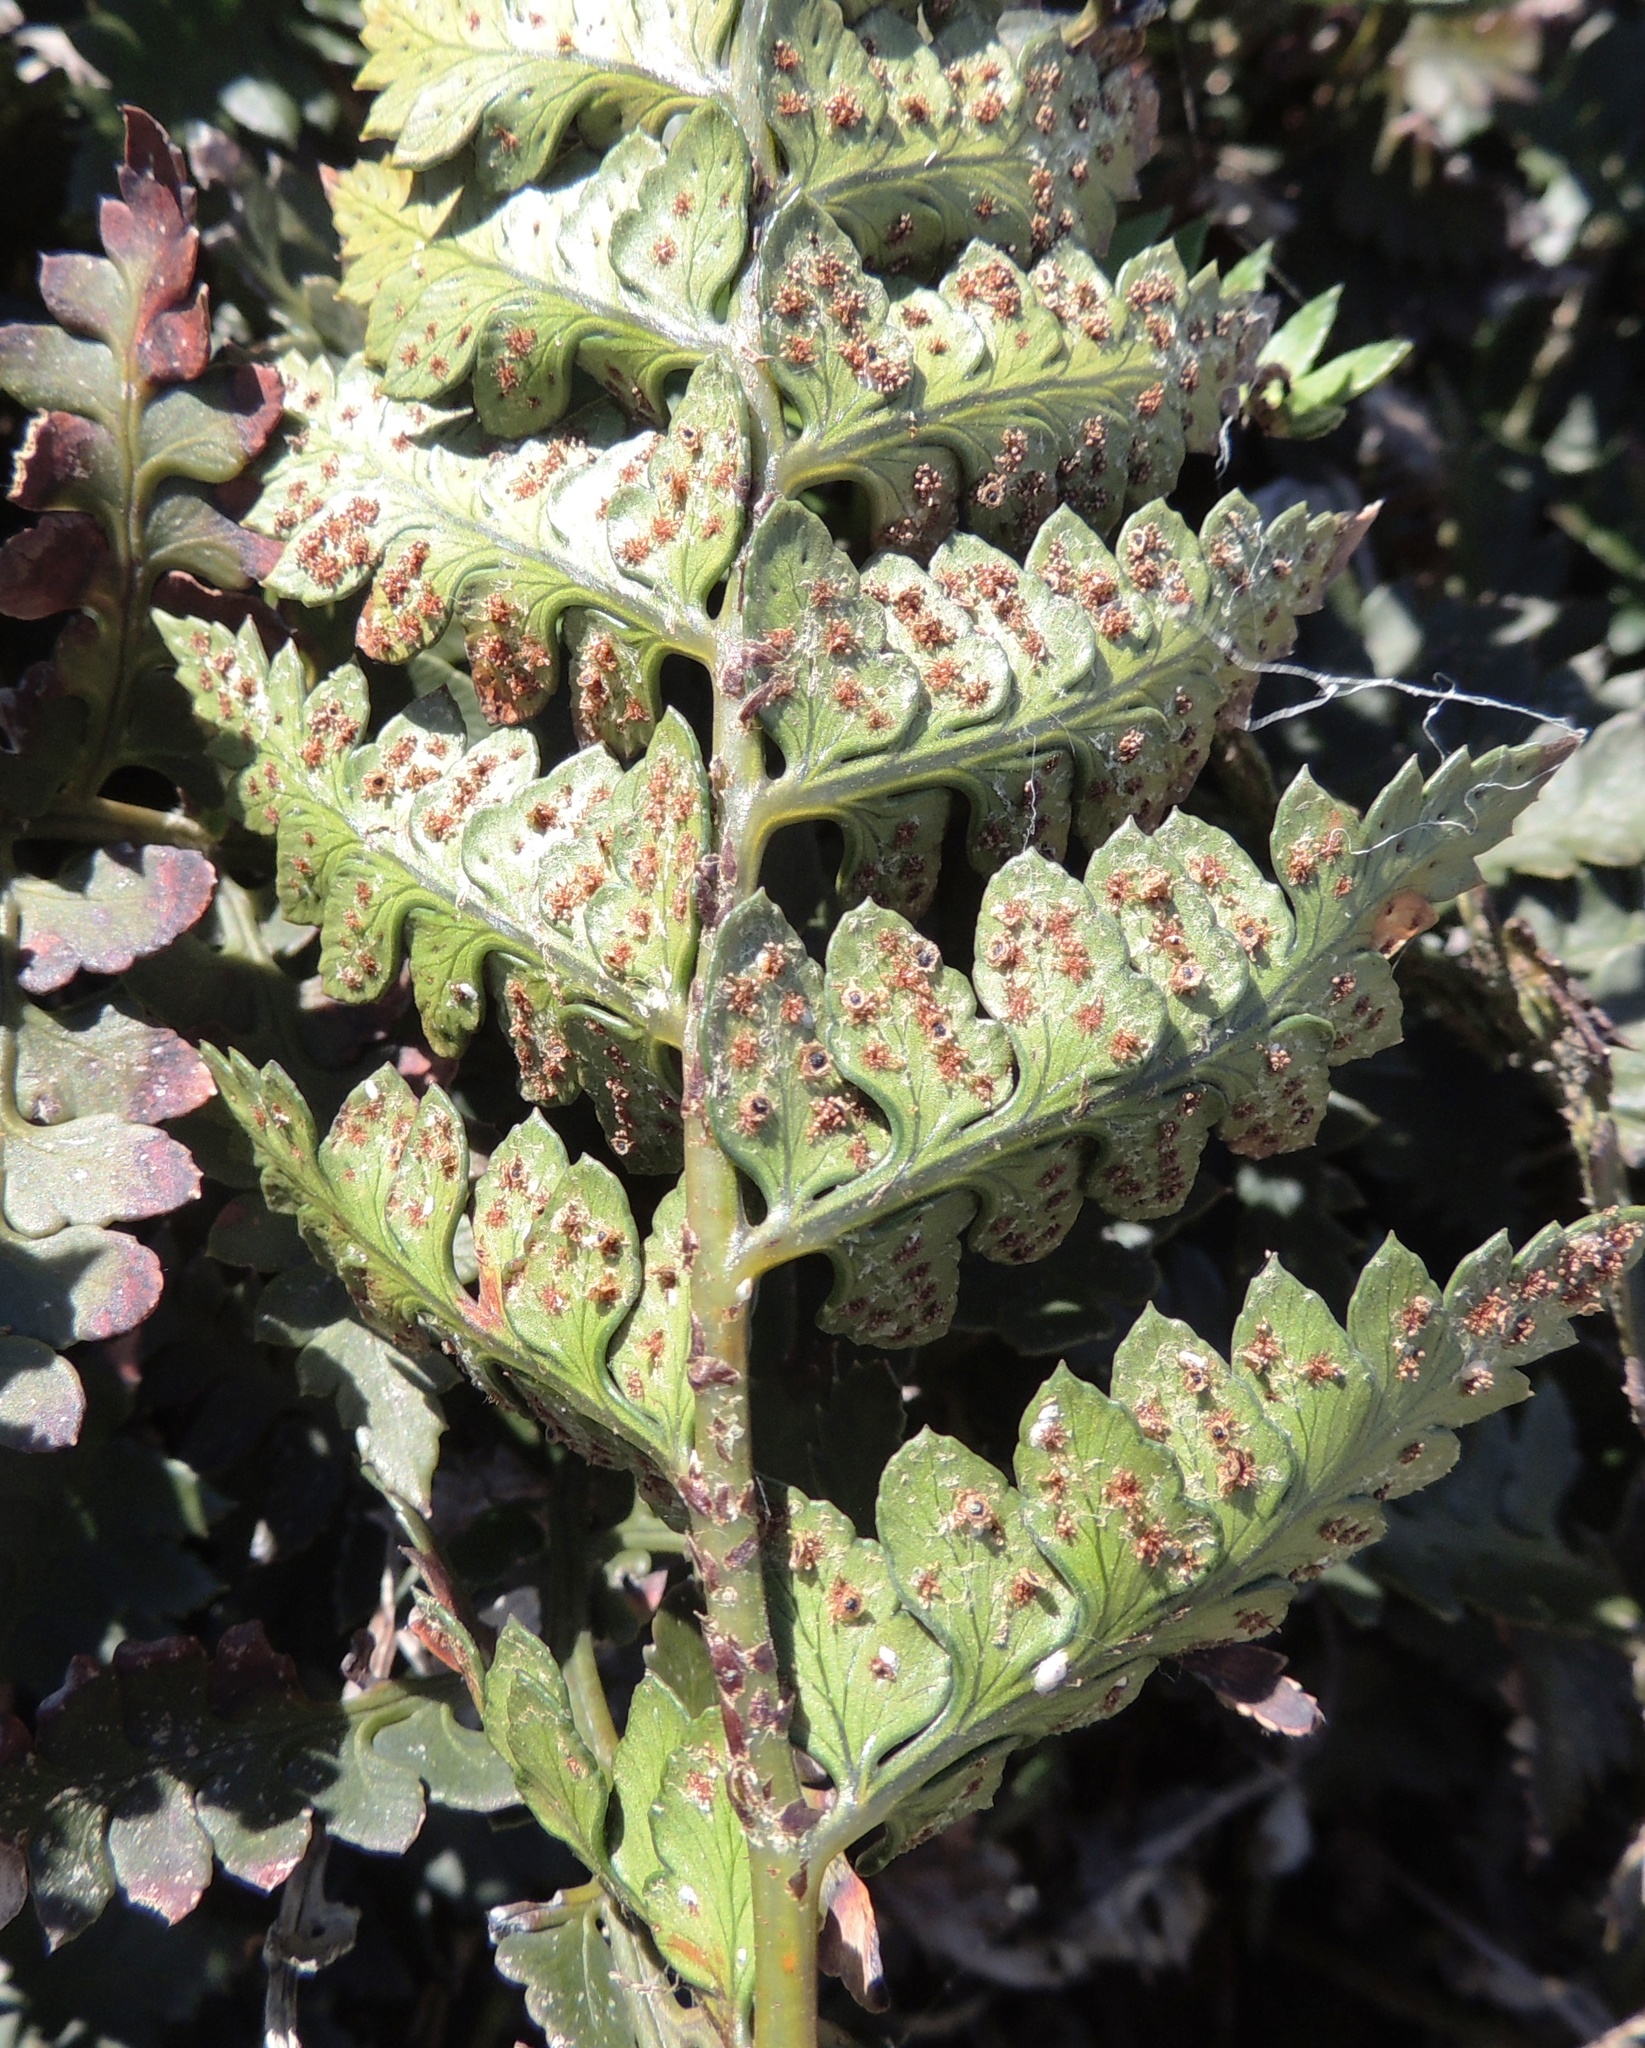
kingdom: Plantae
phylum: Tracheophyta
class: Polypodiopsida
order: Polypodiales
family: Dryopteridaceae
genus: Polystichum
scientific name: Polystichum oculatum
